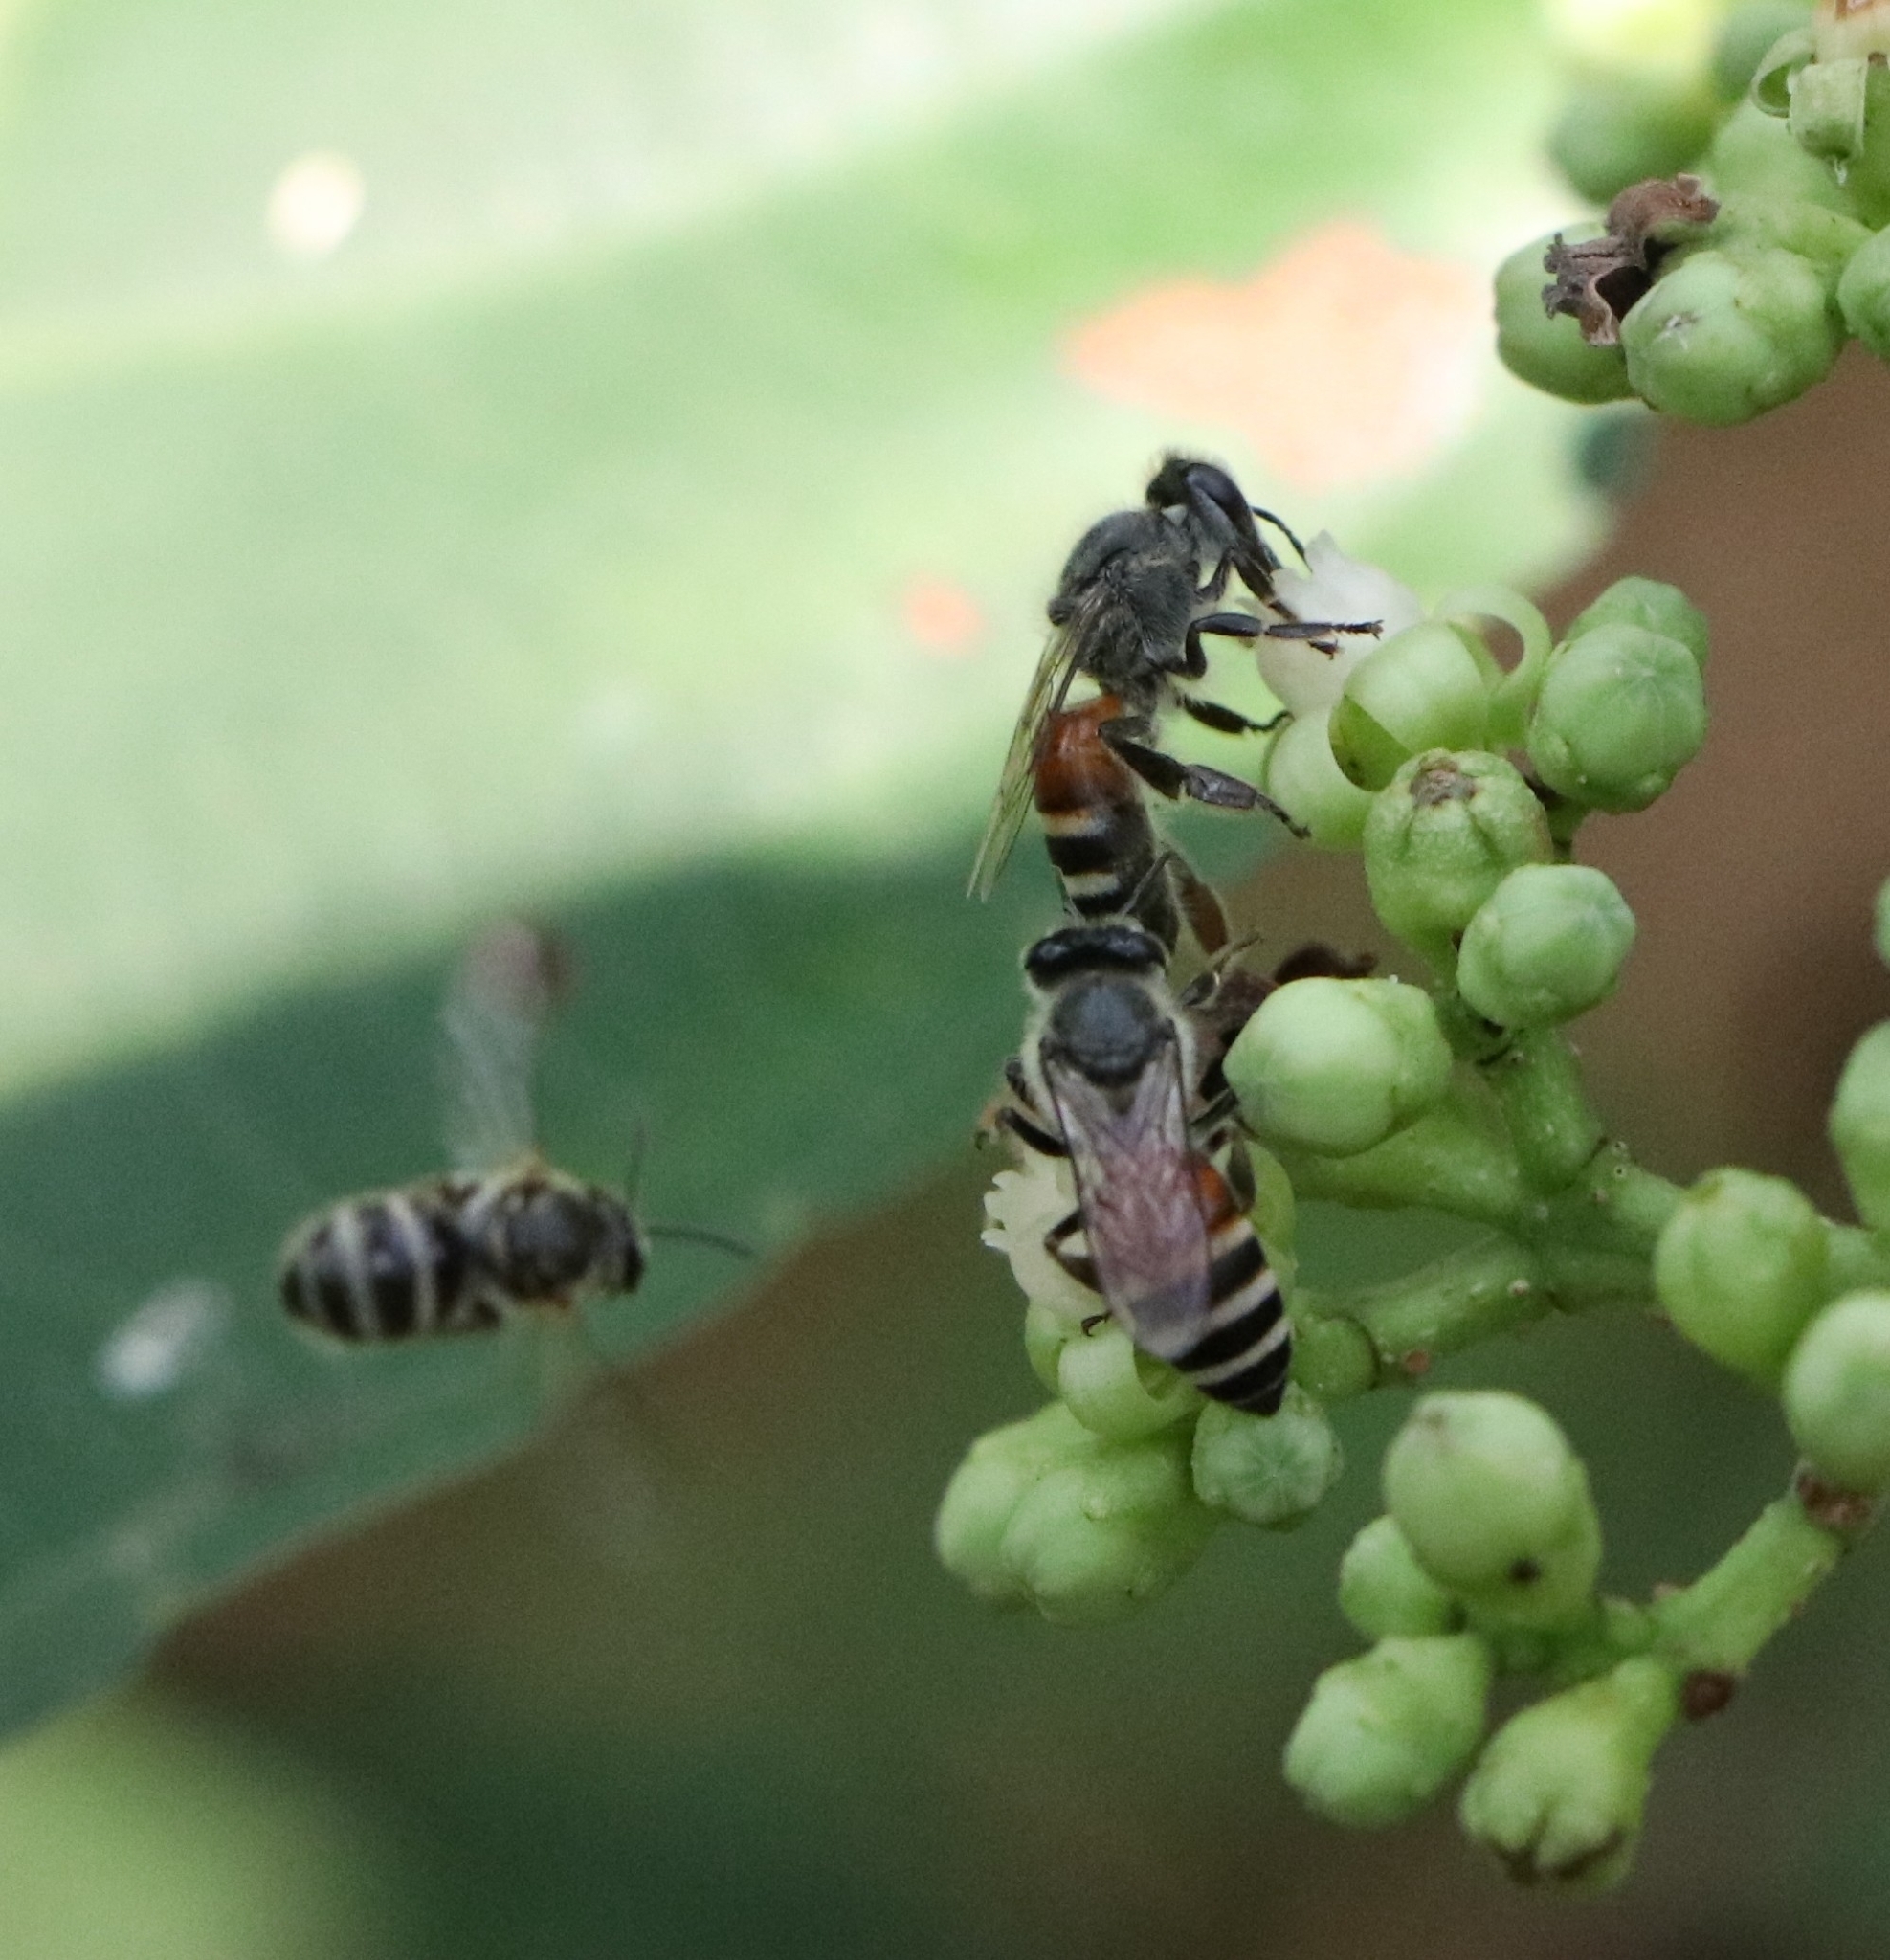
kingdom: Animalia
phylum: Arthropoda
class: Insecta
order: Hymenoptera
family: Apidae
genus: Apis
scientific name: Apis florea
